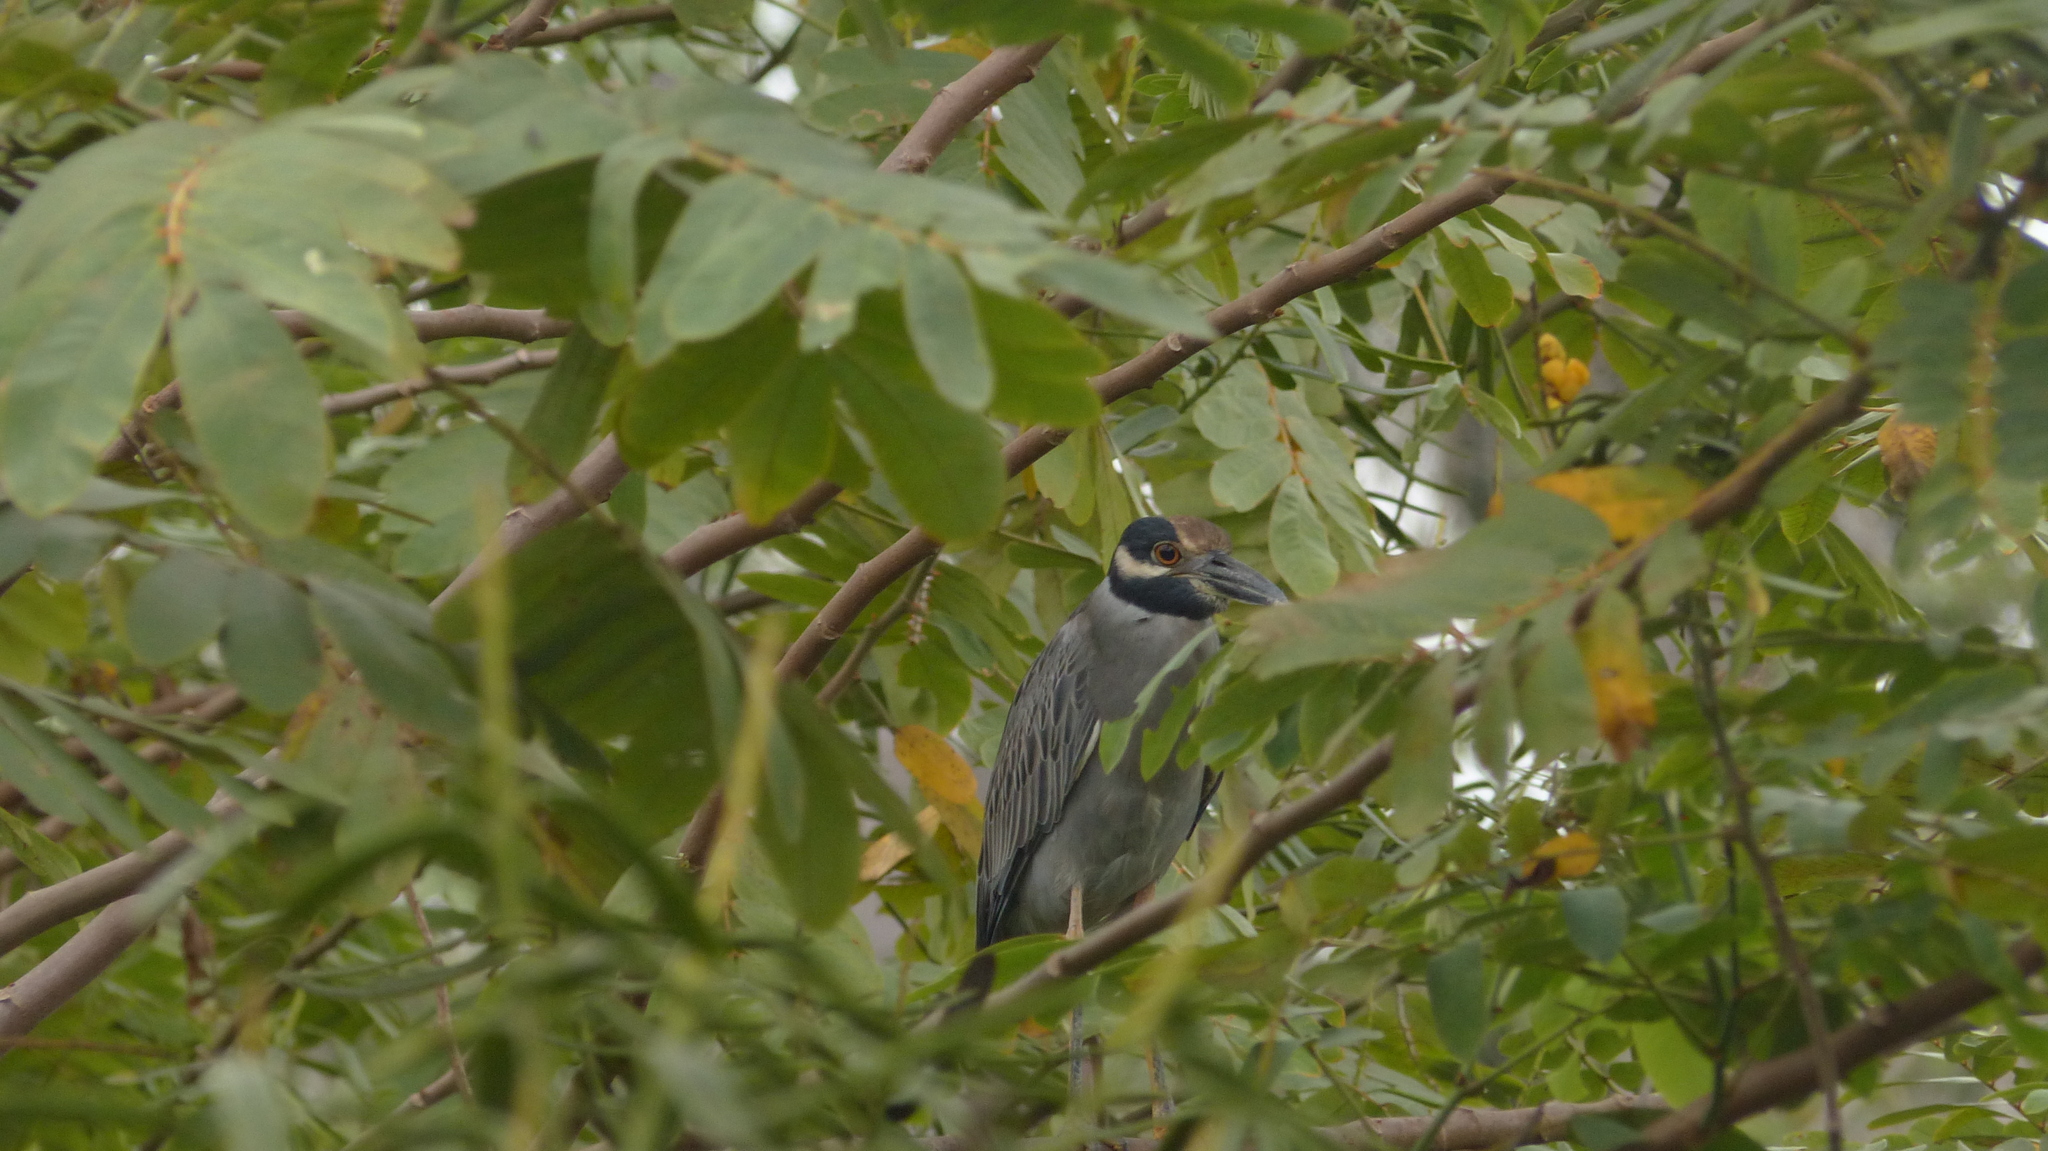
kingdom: Animalia
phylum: Chordata
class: Aves
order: Pelecaniformes
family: Ardeidae
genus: Nyctanassa
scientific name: Nyctanassa violacea
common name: Yellow-crowned night heron
